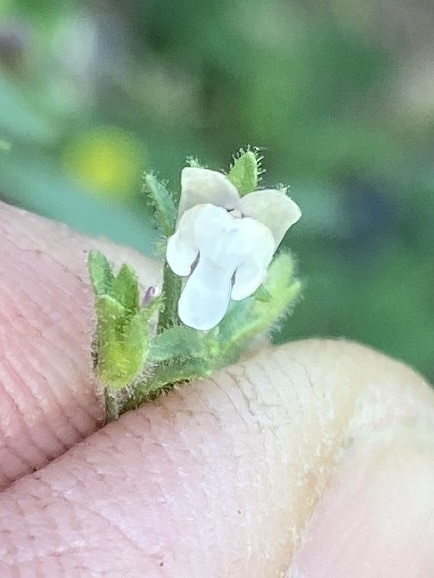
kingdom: Plantae
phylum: Tracheophyta
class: Magnoliopsida
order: Lamiales
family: Plantaginaceae
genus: Chaenorhinum
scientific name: Chaenorhinum minus
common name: Dwarf snapdragon
